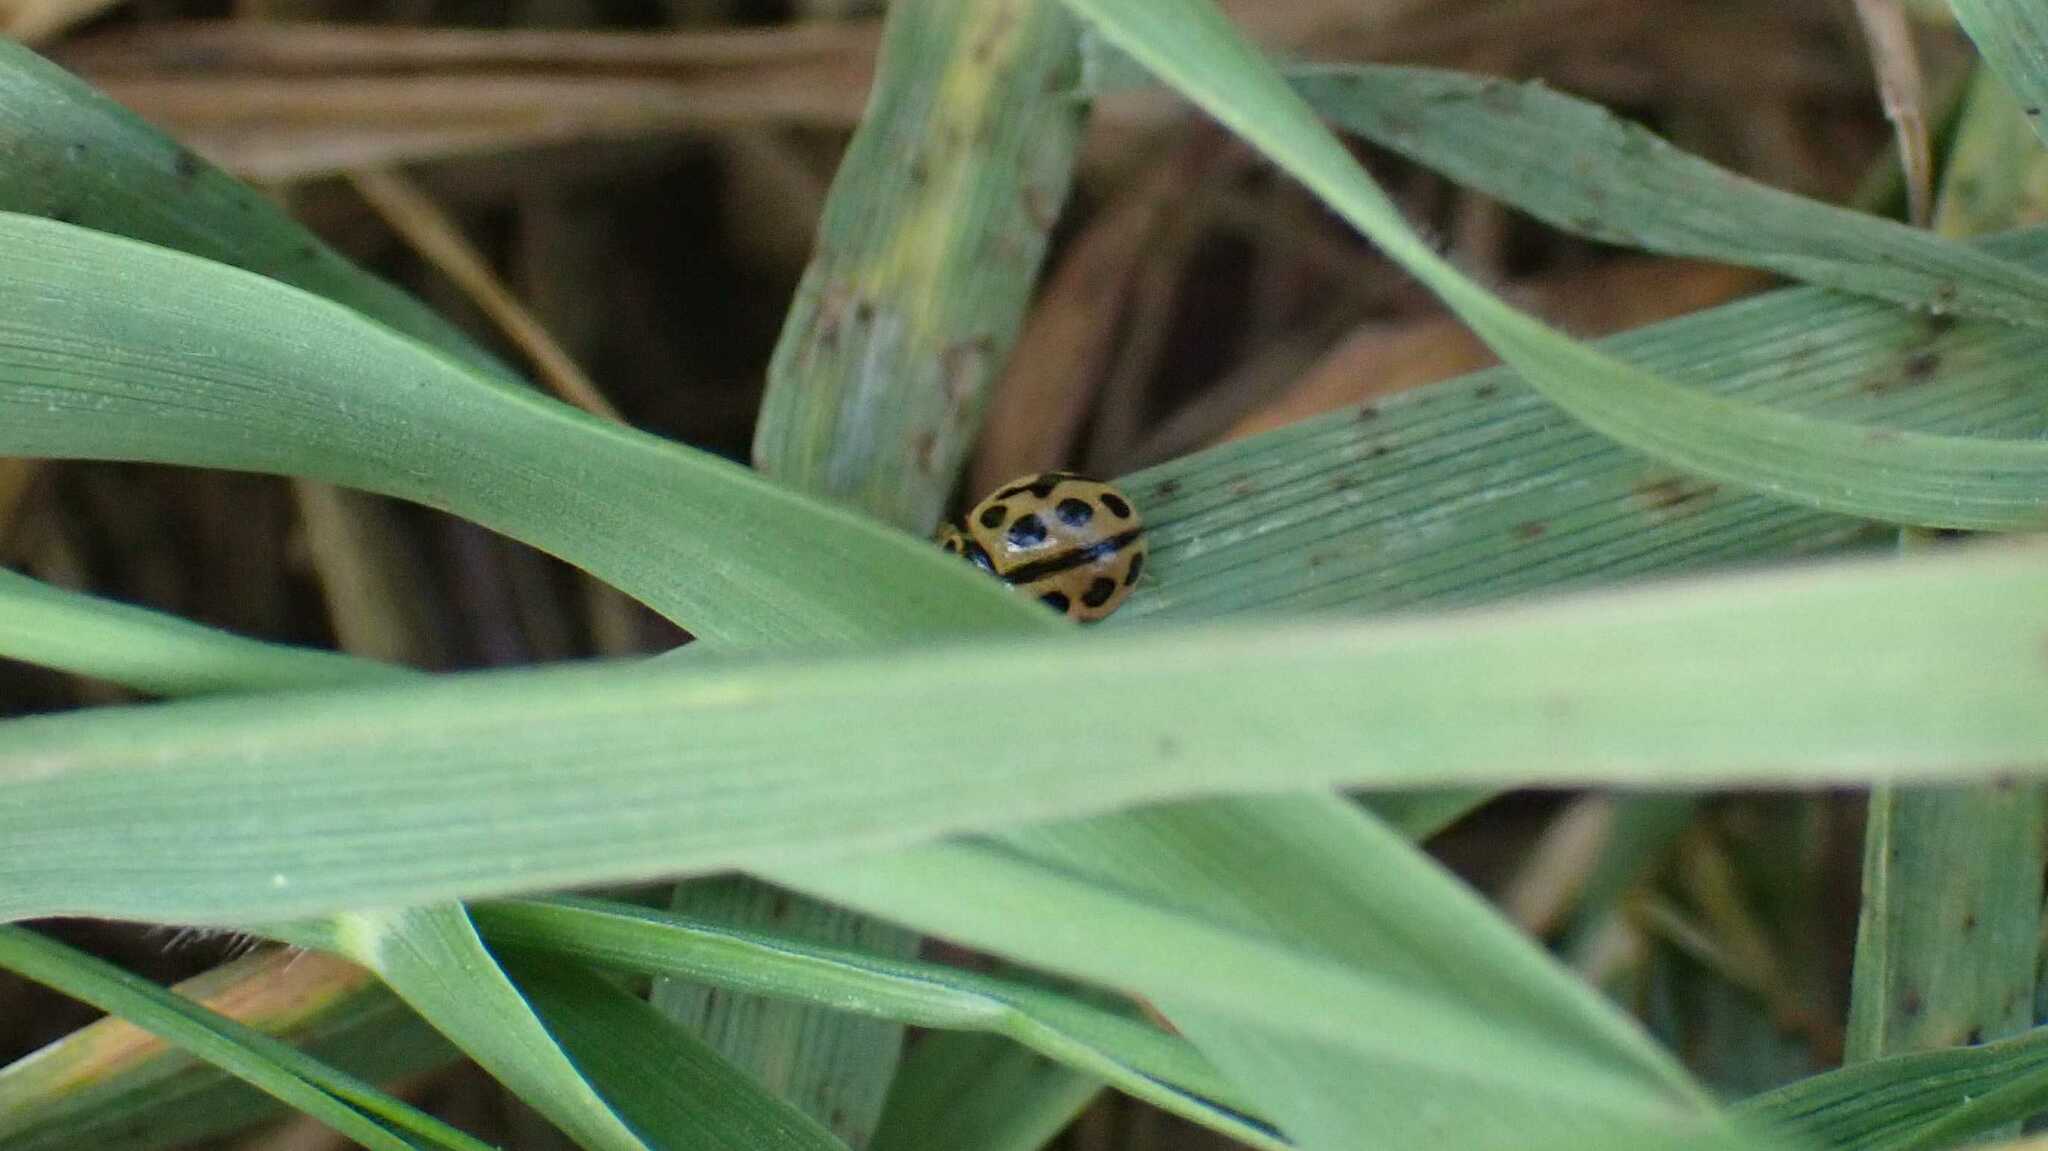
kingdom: Animalia
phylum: Arthropoda
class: Insecta
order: Coleoptera
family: Coccinellidae
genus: Tytthaspis
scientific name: Tytthaspis sedecimpunctata
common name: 16-spot ladybird
